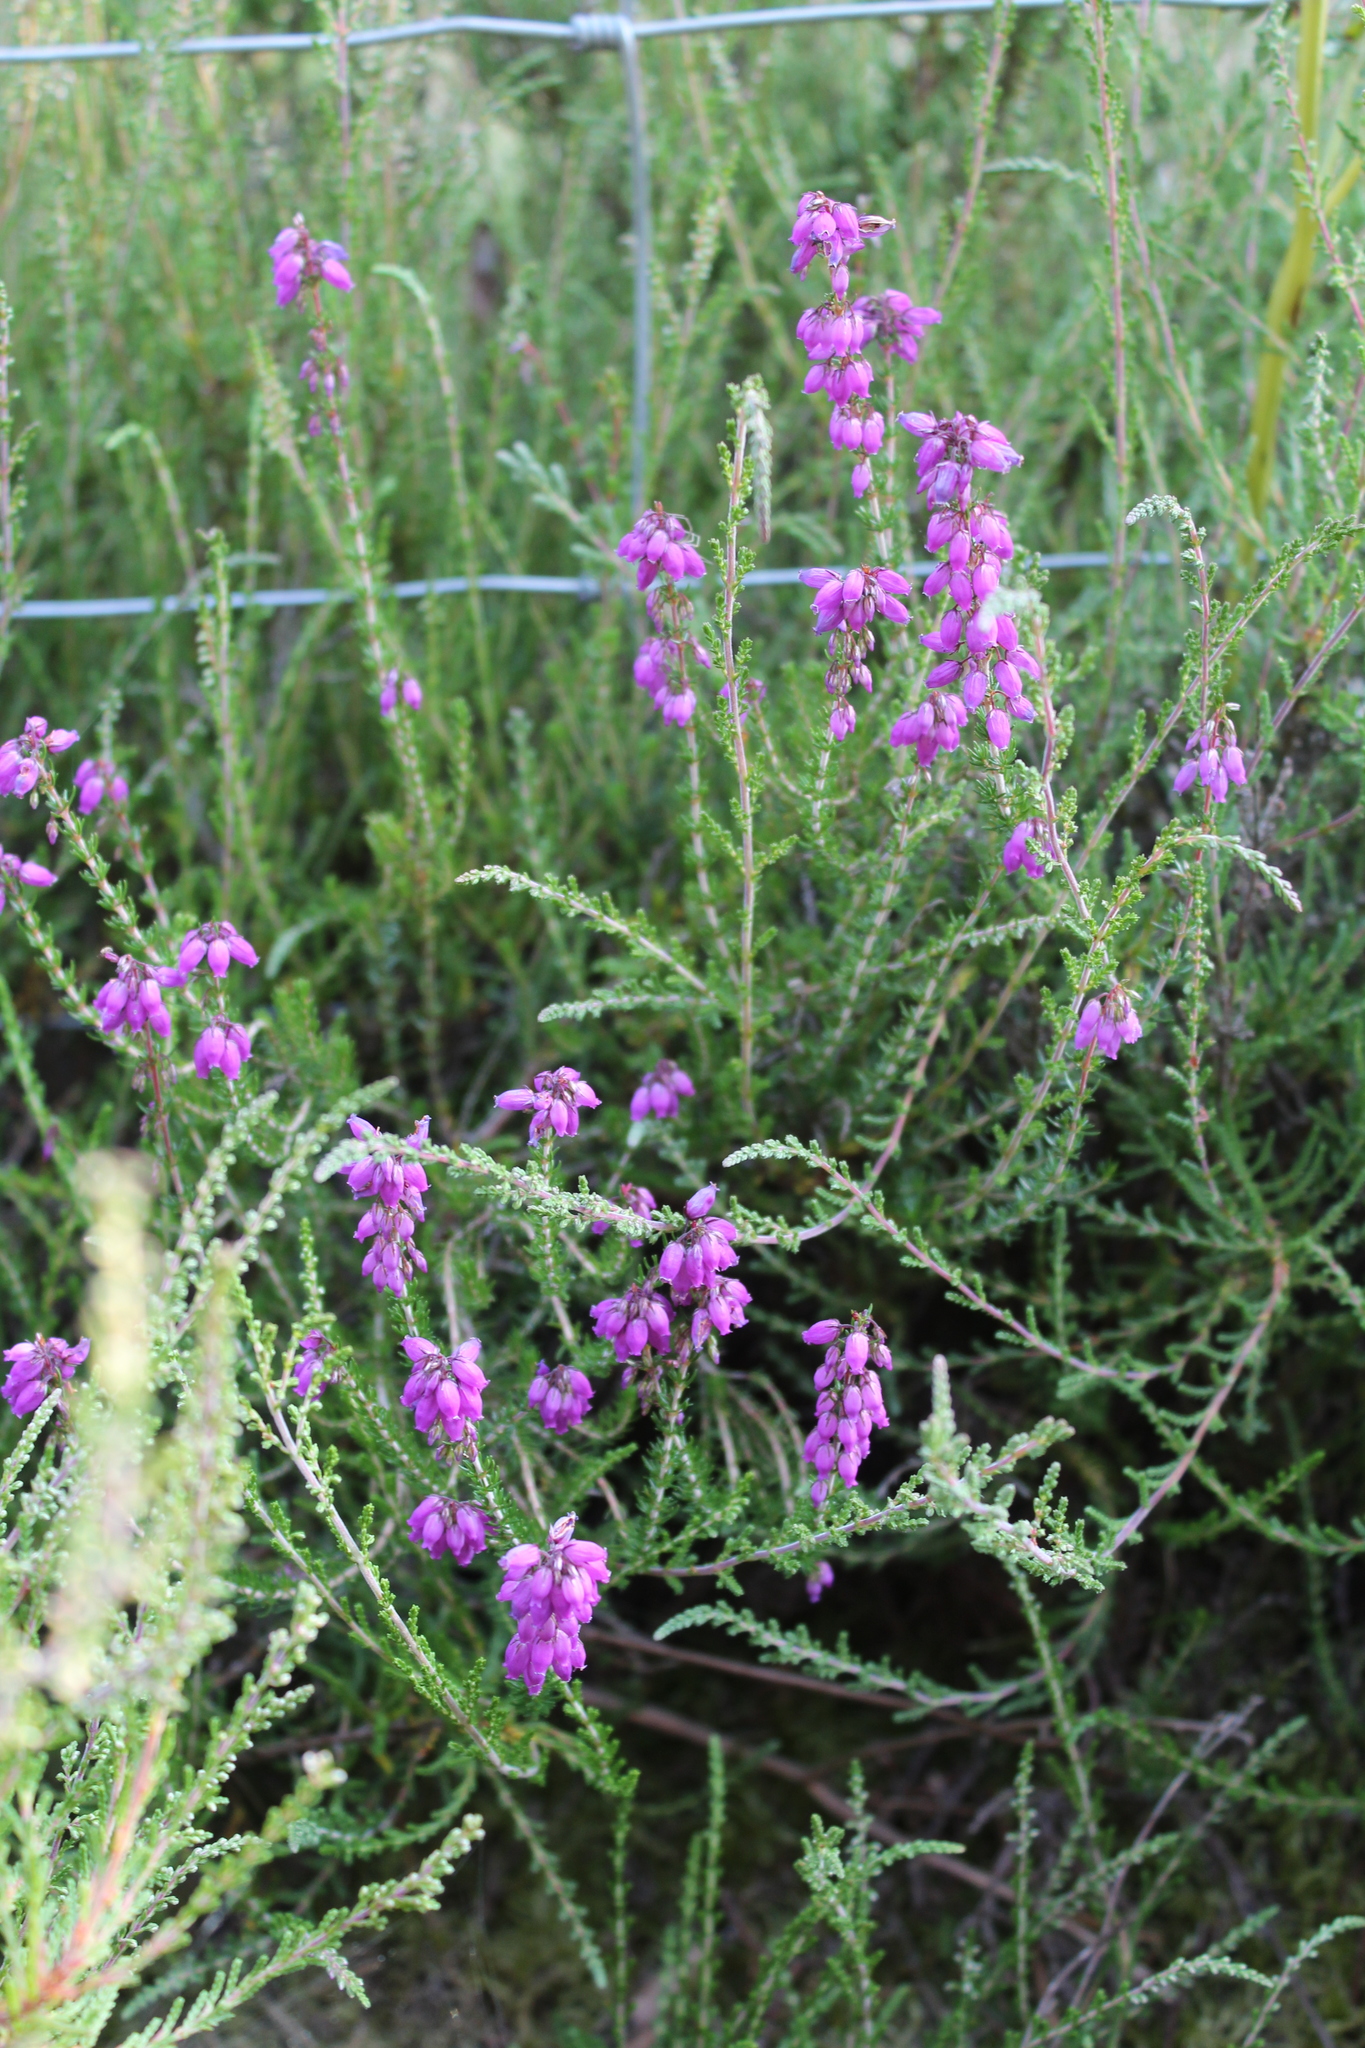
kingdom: Plantae
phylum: Tracheophyta
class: Magnoliopsida
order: Ericales
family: Ericaceae
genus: Erica
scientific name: Erica cinerea
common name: Bell heather
